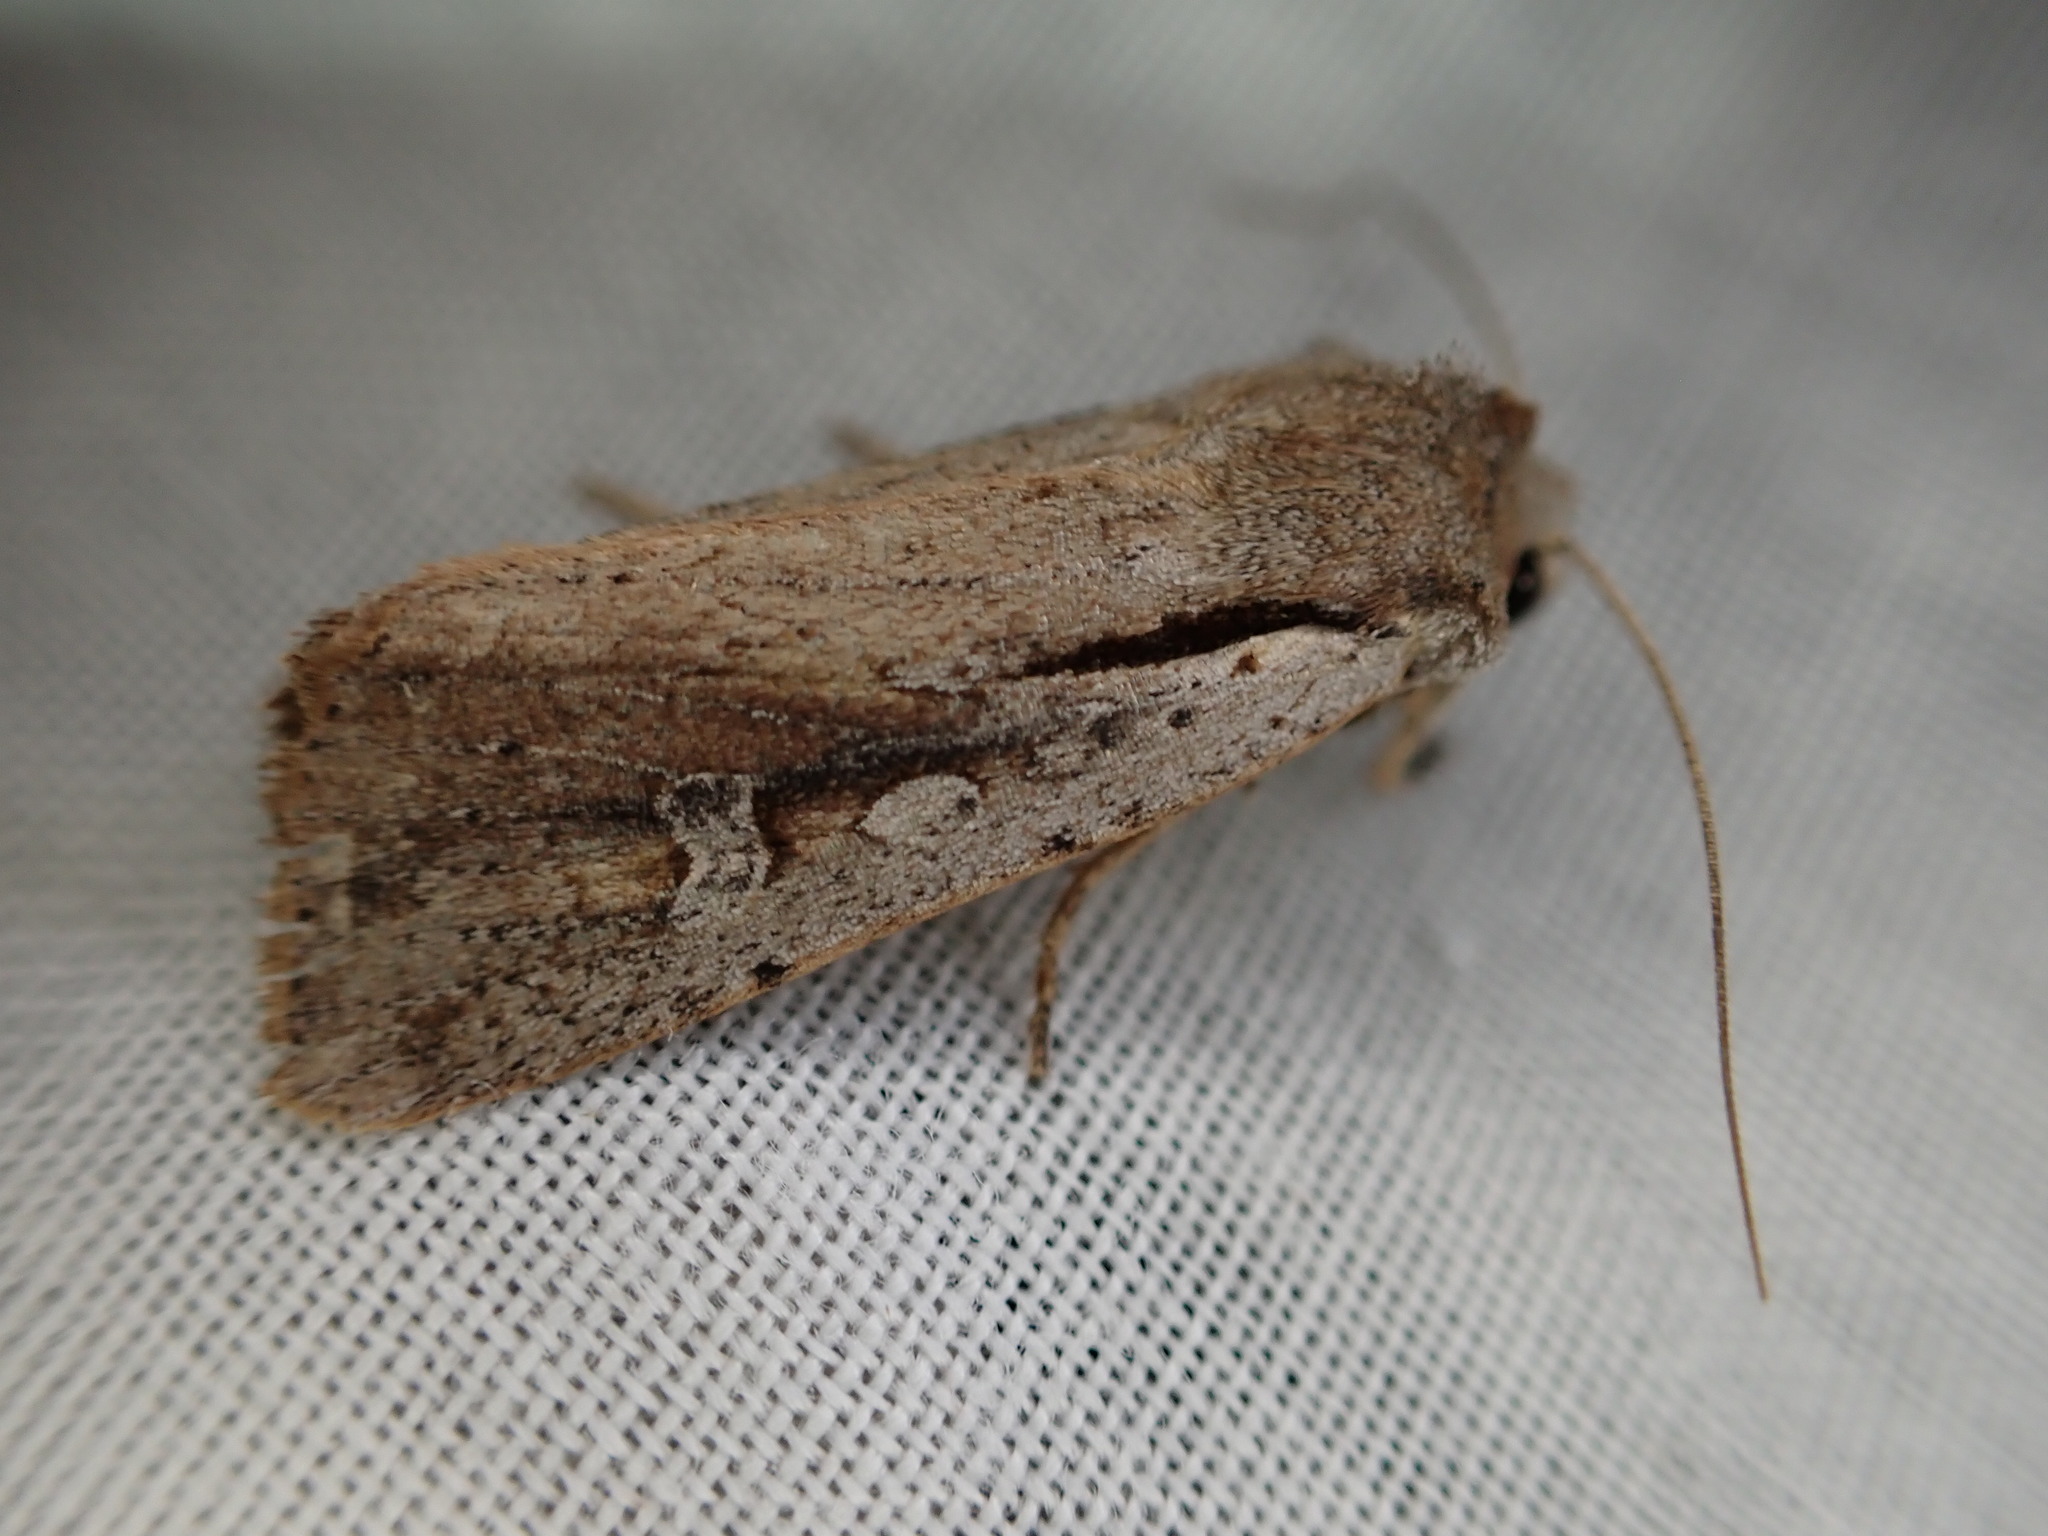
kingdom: Animalia
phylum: Arthropoda
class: Insecta
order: Lepidoptera
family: Noctuidae
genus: Ichneutica
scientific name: Ichneutica atristriga
